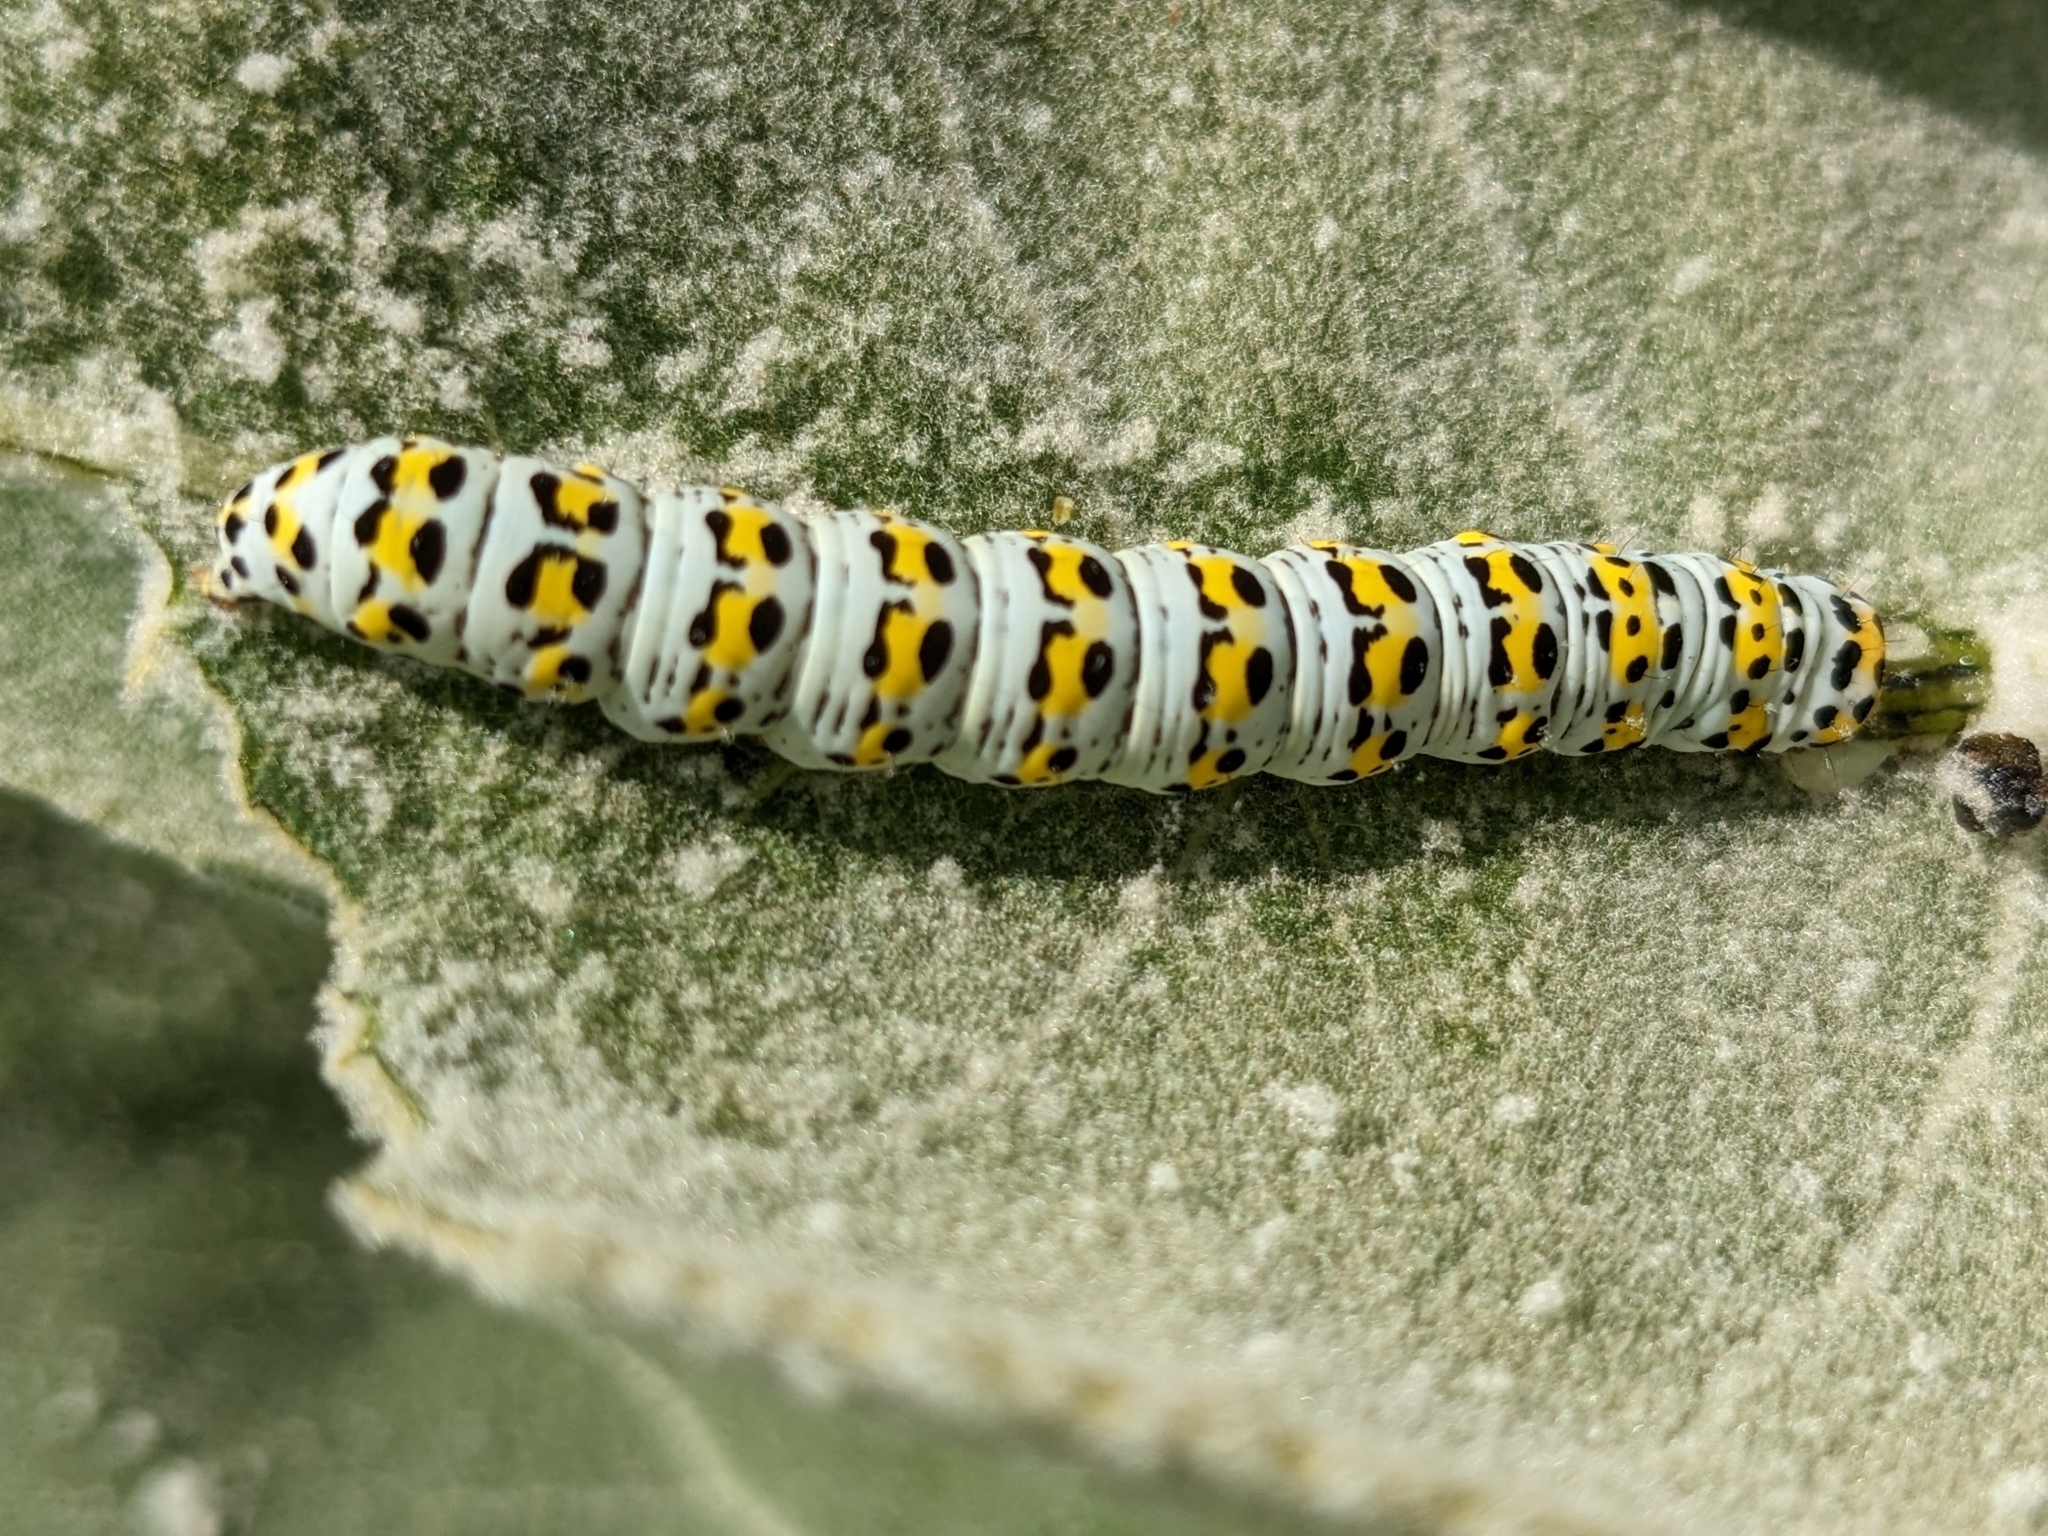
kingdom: Animalia
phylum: Arthropoda
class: Insecta
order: Lepidoptera
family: Noctuidae
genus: Cucullia
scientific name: Cucullia verbasci
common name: Mullein
